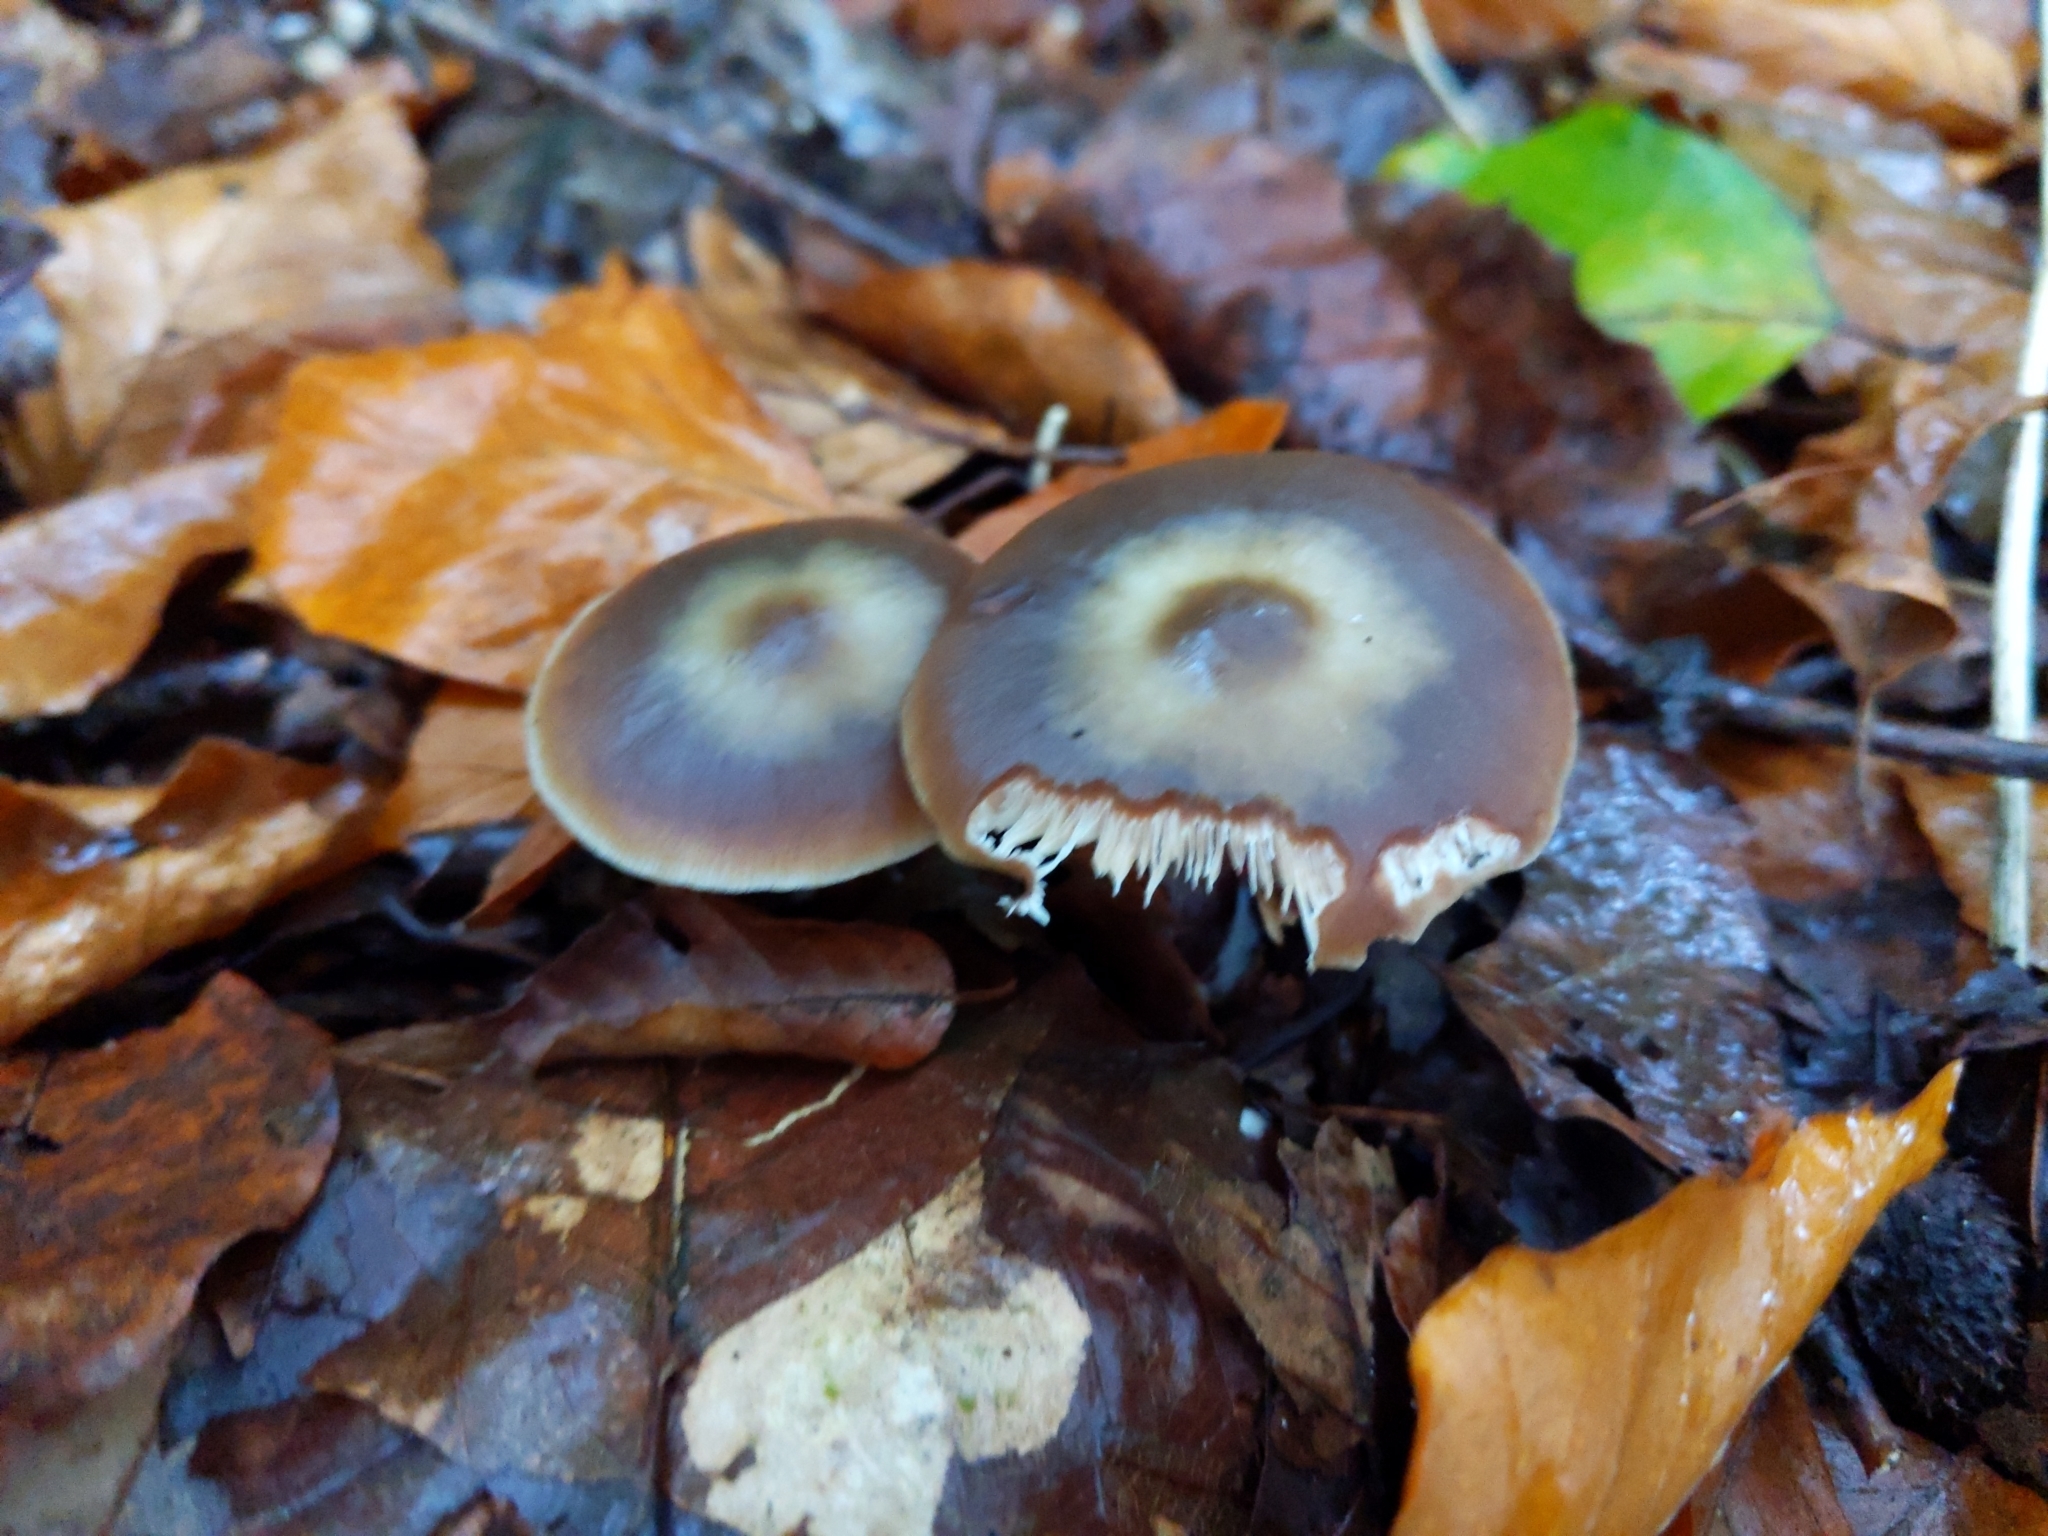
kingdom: Fungi
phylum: Basidiomycota
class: Agaricomycetes
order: Agaricales
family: Omphalotaceae
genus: Rhodocollybia
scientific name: Rhodocollybia butyracea
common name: Butter cap
